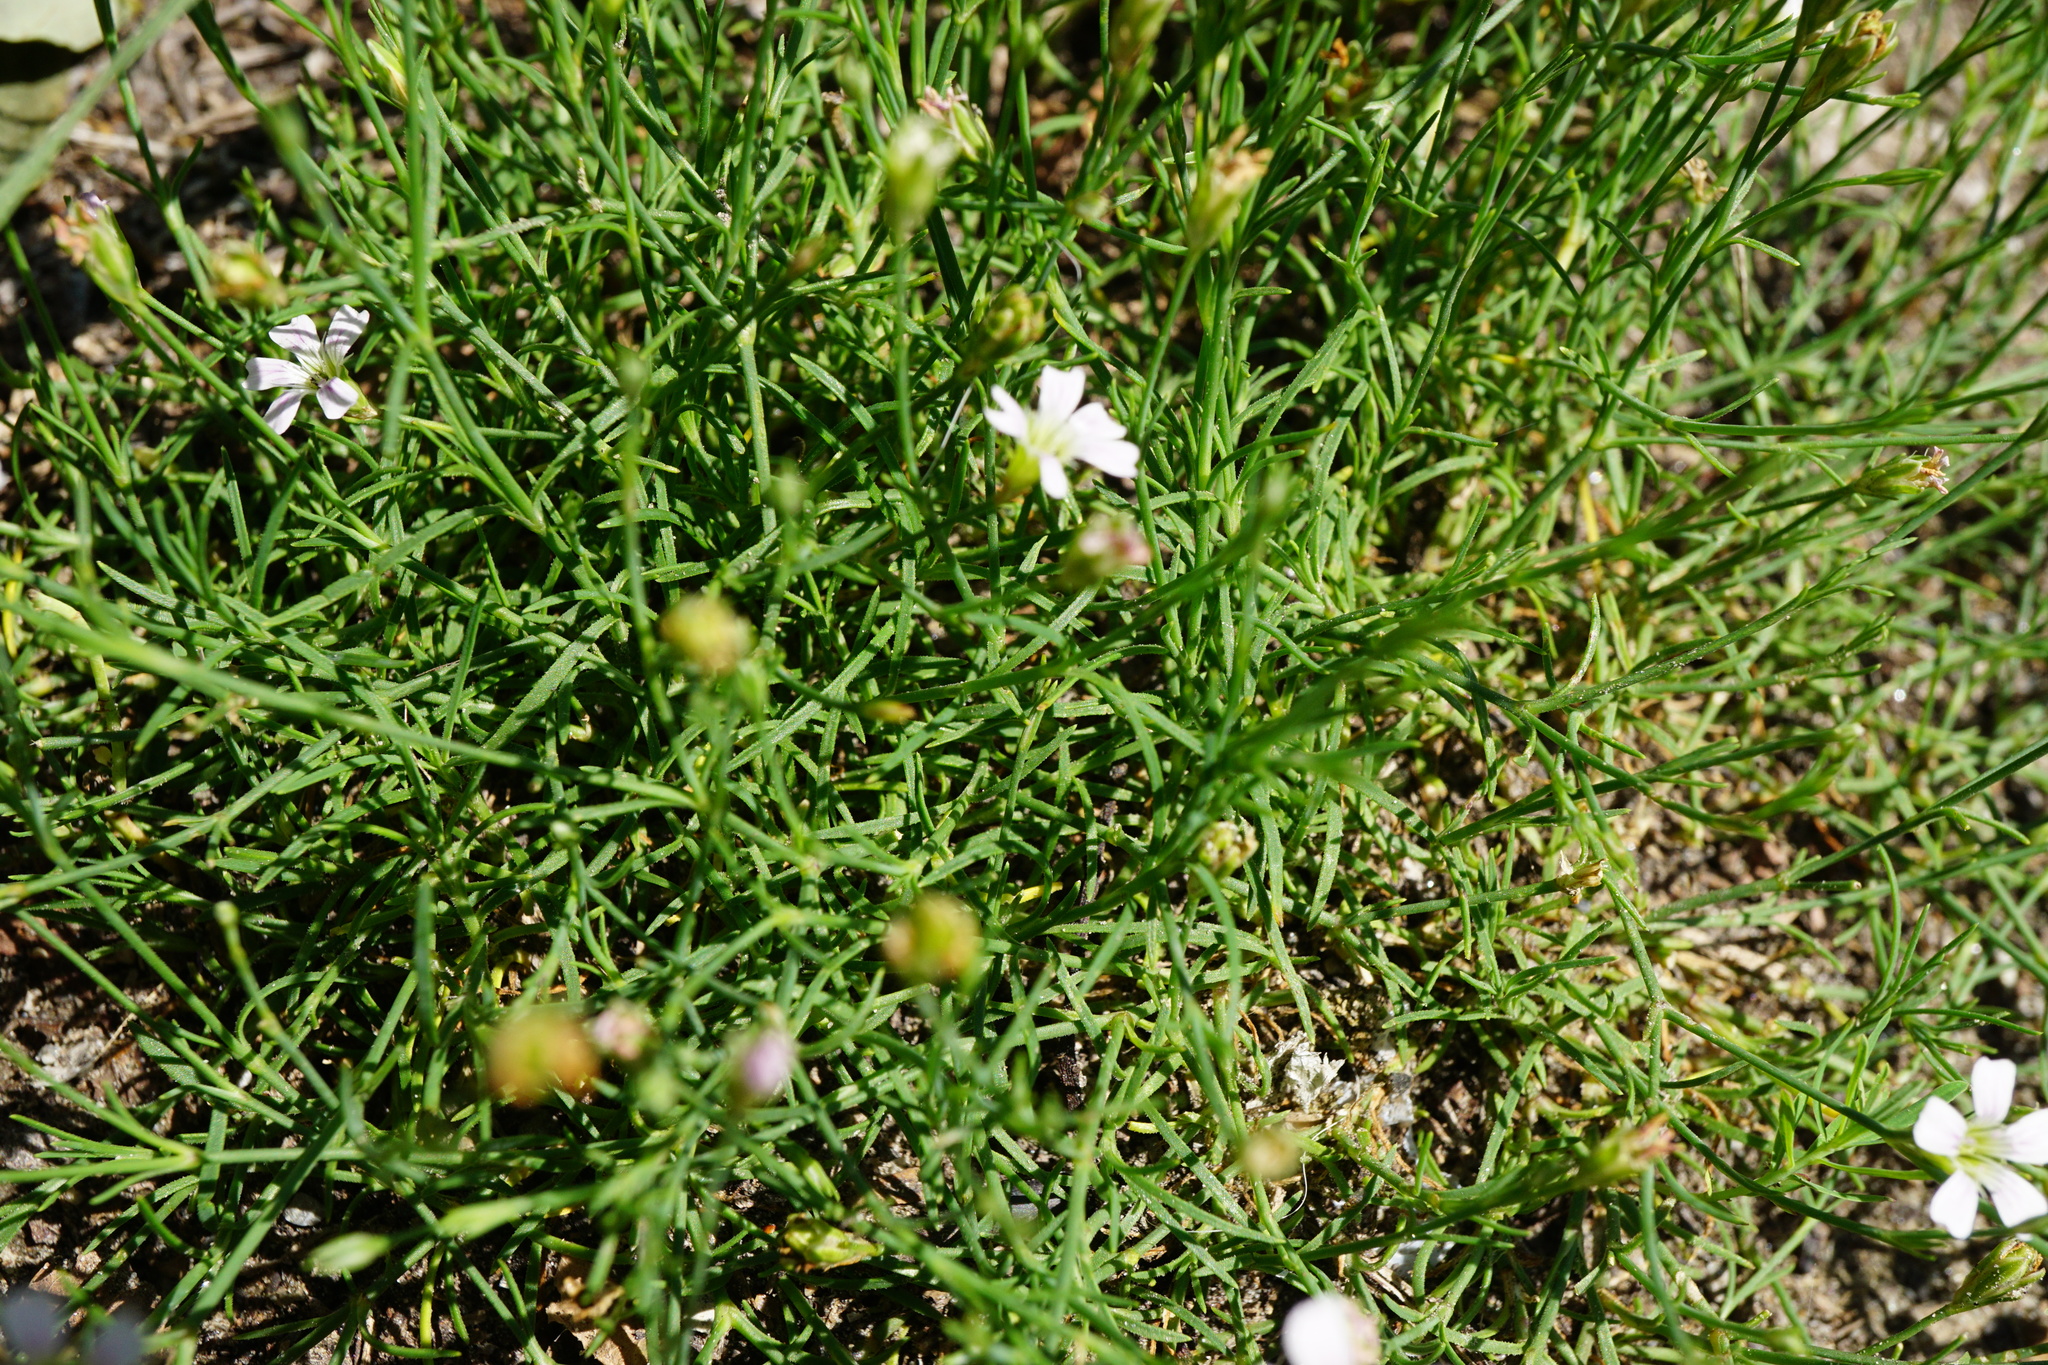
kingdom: Plantae
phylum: Tracheophyta
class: Magnoliopsida
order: Caryophyllales
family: Caryophyllaceae
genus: Petrorhagia
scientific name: Petrorhagia saxifraga
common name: Tunicflower
